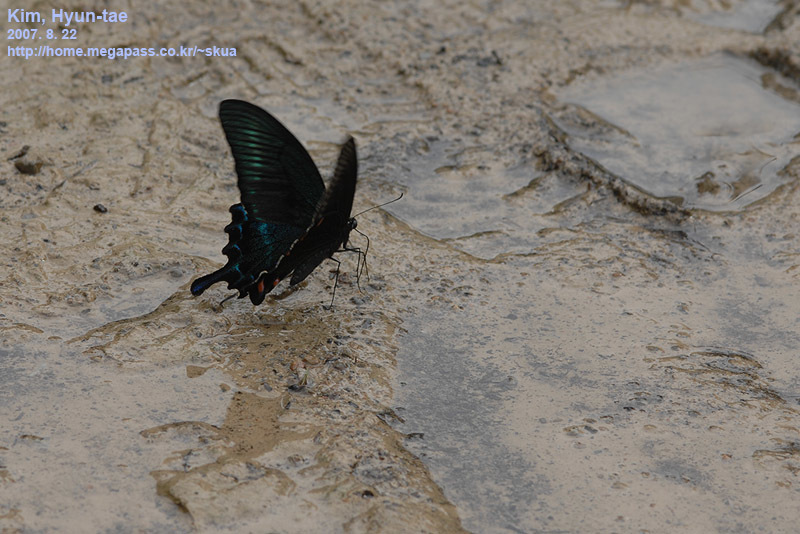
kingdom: Animalia
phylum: Arthropoda
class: Insecta
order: Lepidoptera
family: Papilionidae
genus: Papilio
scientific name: Papilio maackii
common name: Alpine black swallowtail
